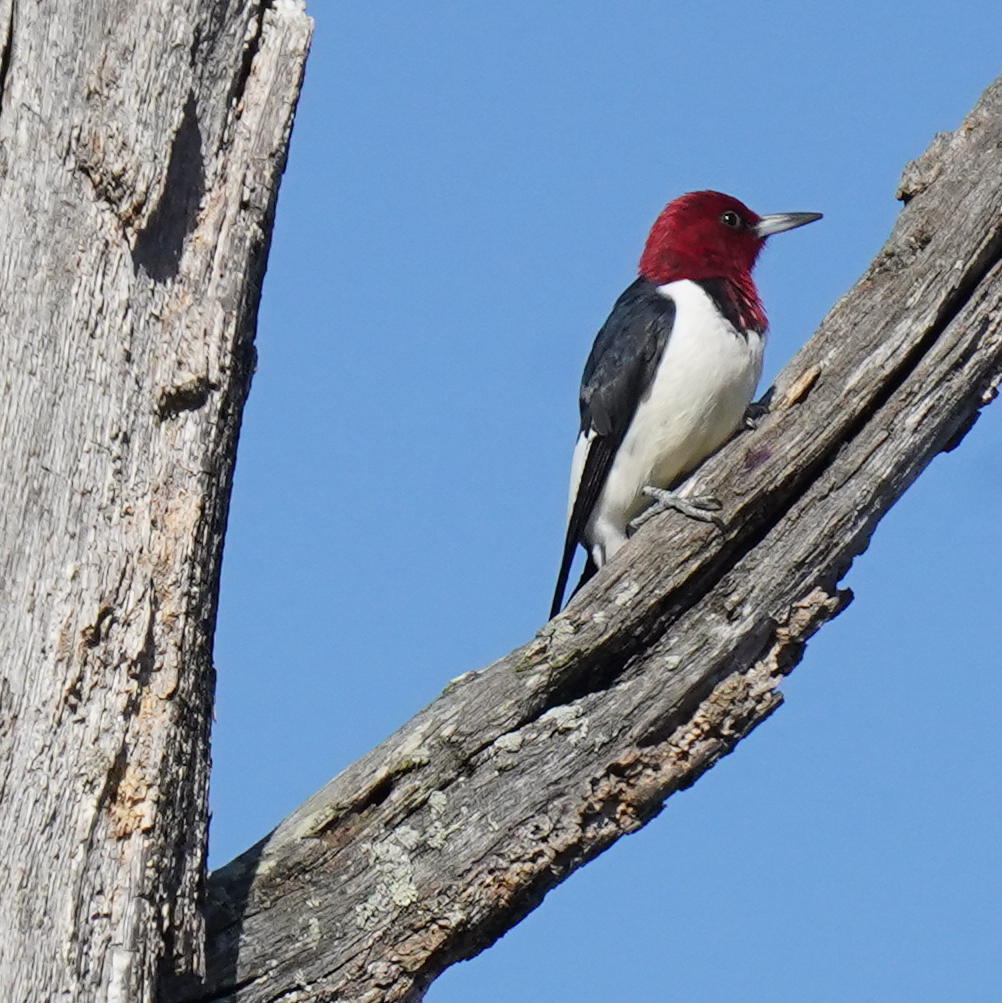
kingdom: Animalia
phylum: Chordata
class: Aves
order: Piciformes
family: Picidae
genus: Melanerpes
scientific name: Melanerpes erythrocephalus
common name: Red-headed woodpecker
